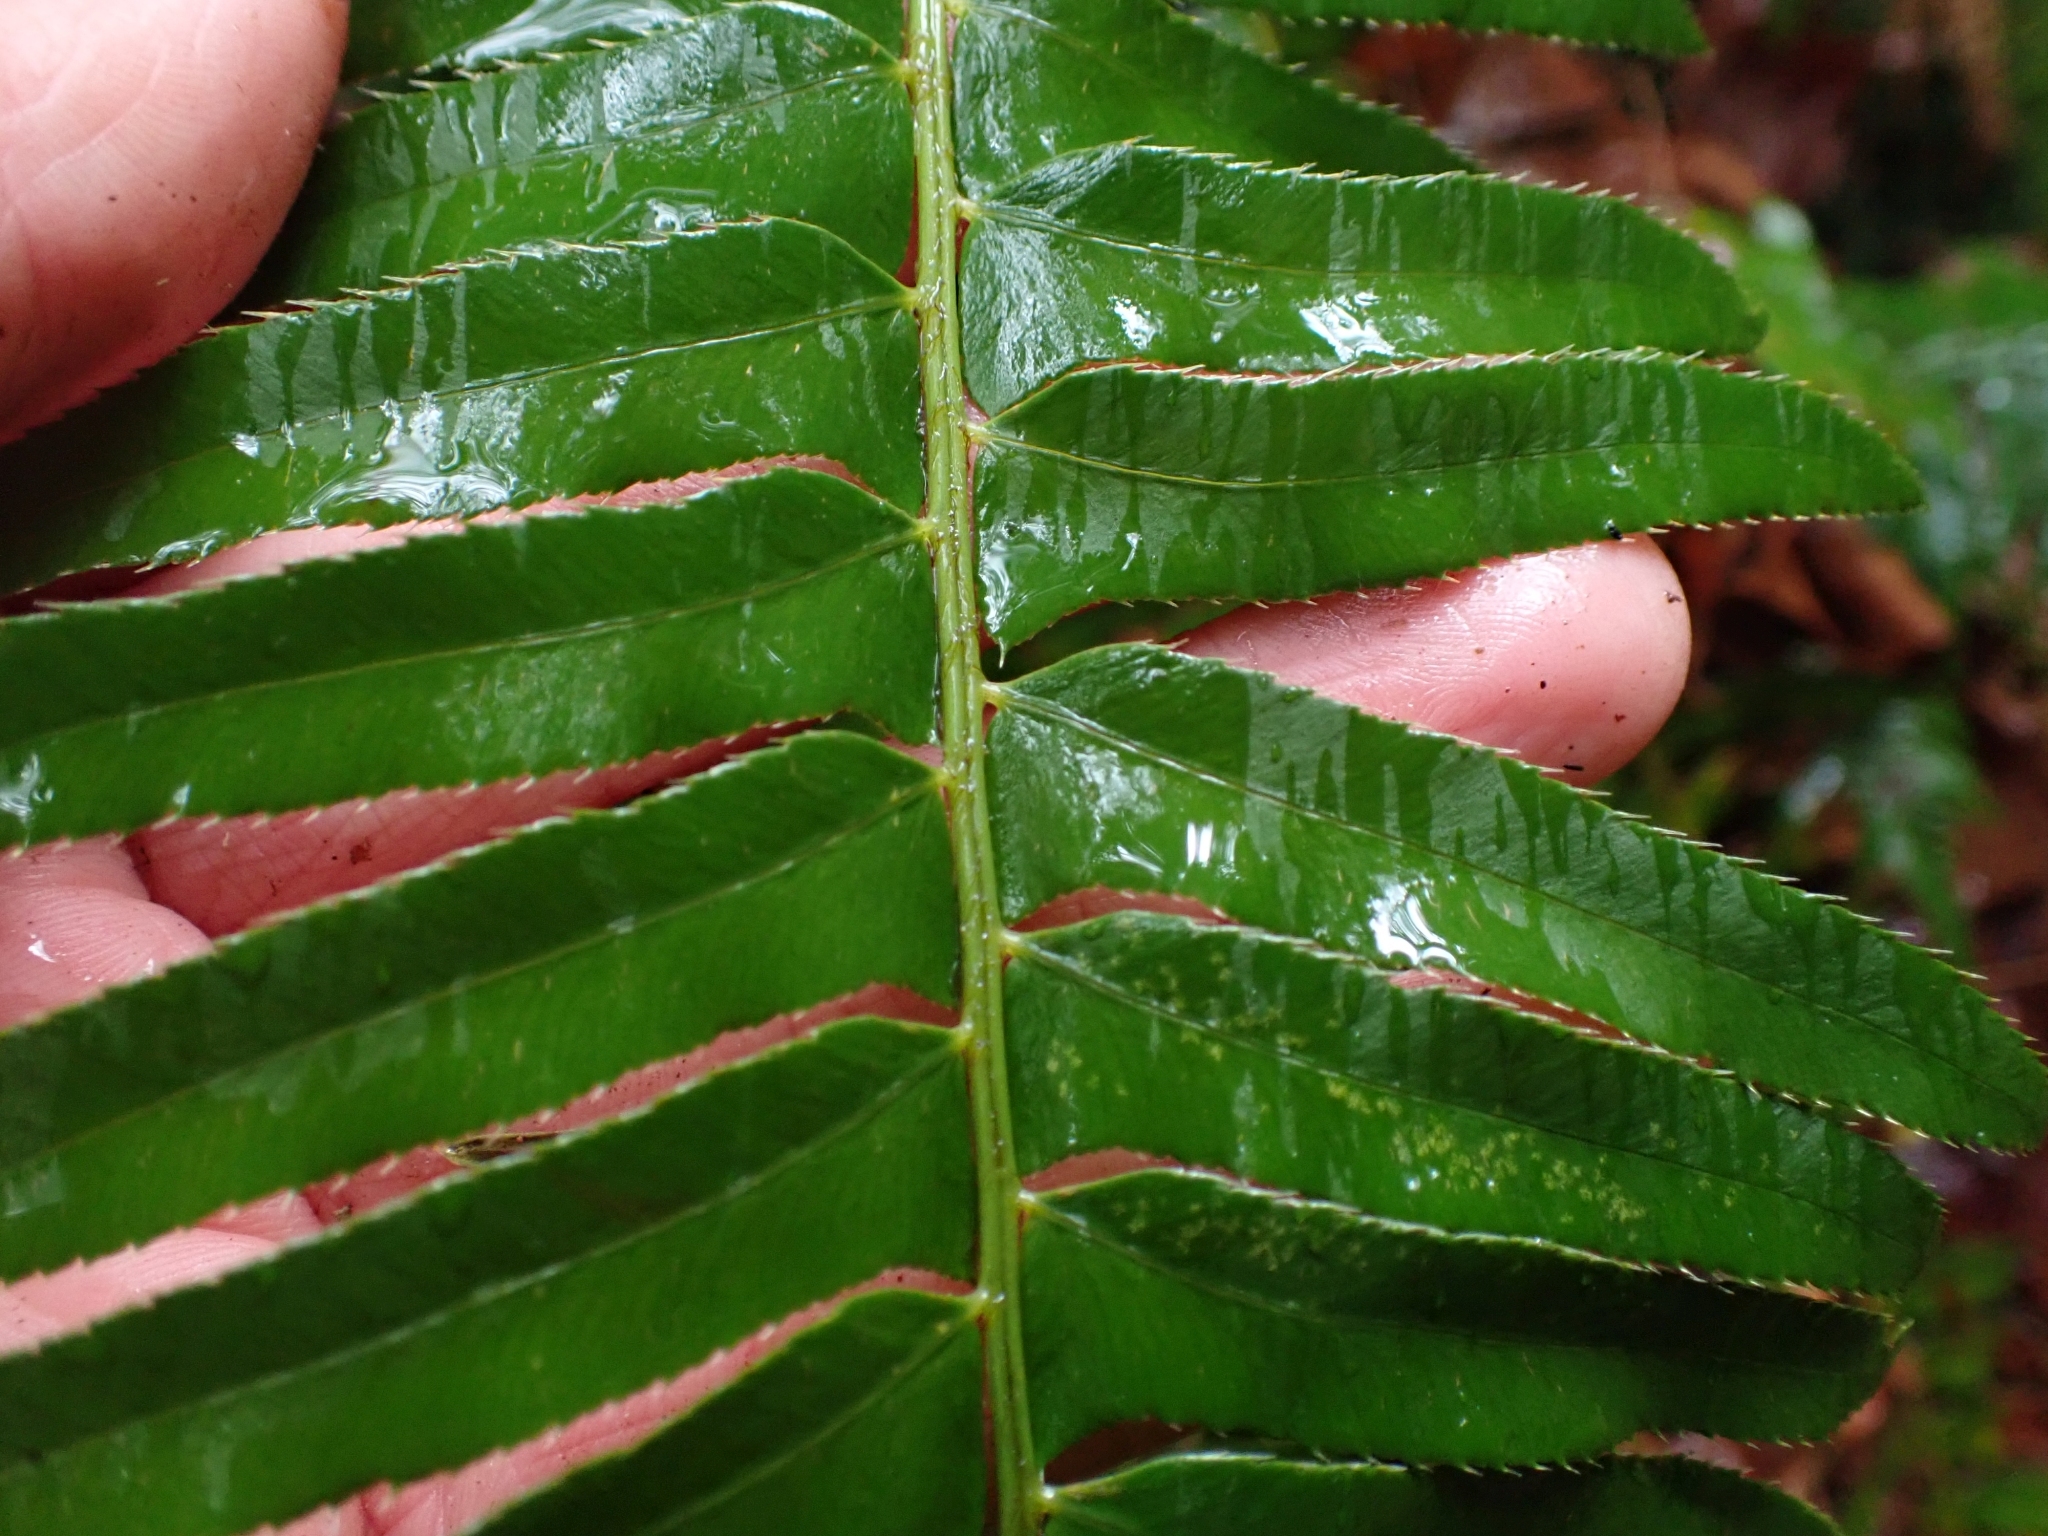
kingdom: Plantae
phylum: Tracheophyta
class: Polypodiopsida
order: Polypodiales
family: Dryopteridaceae
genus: Polystichum
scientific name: Polystichum munitum
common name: Western sword-fern
